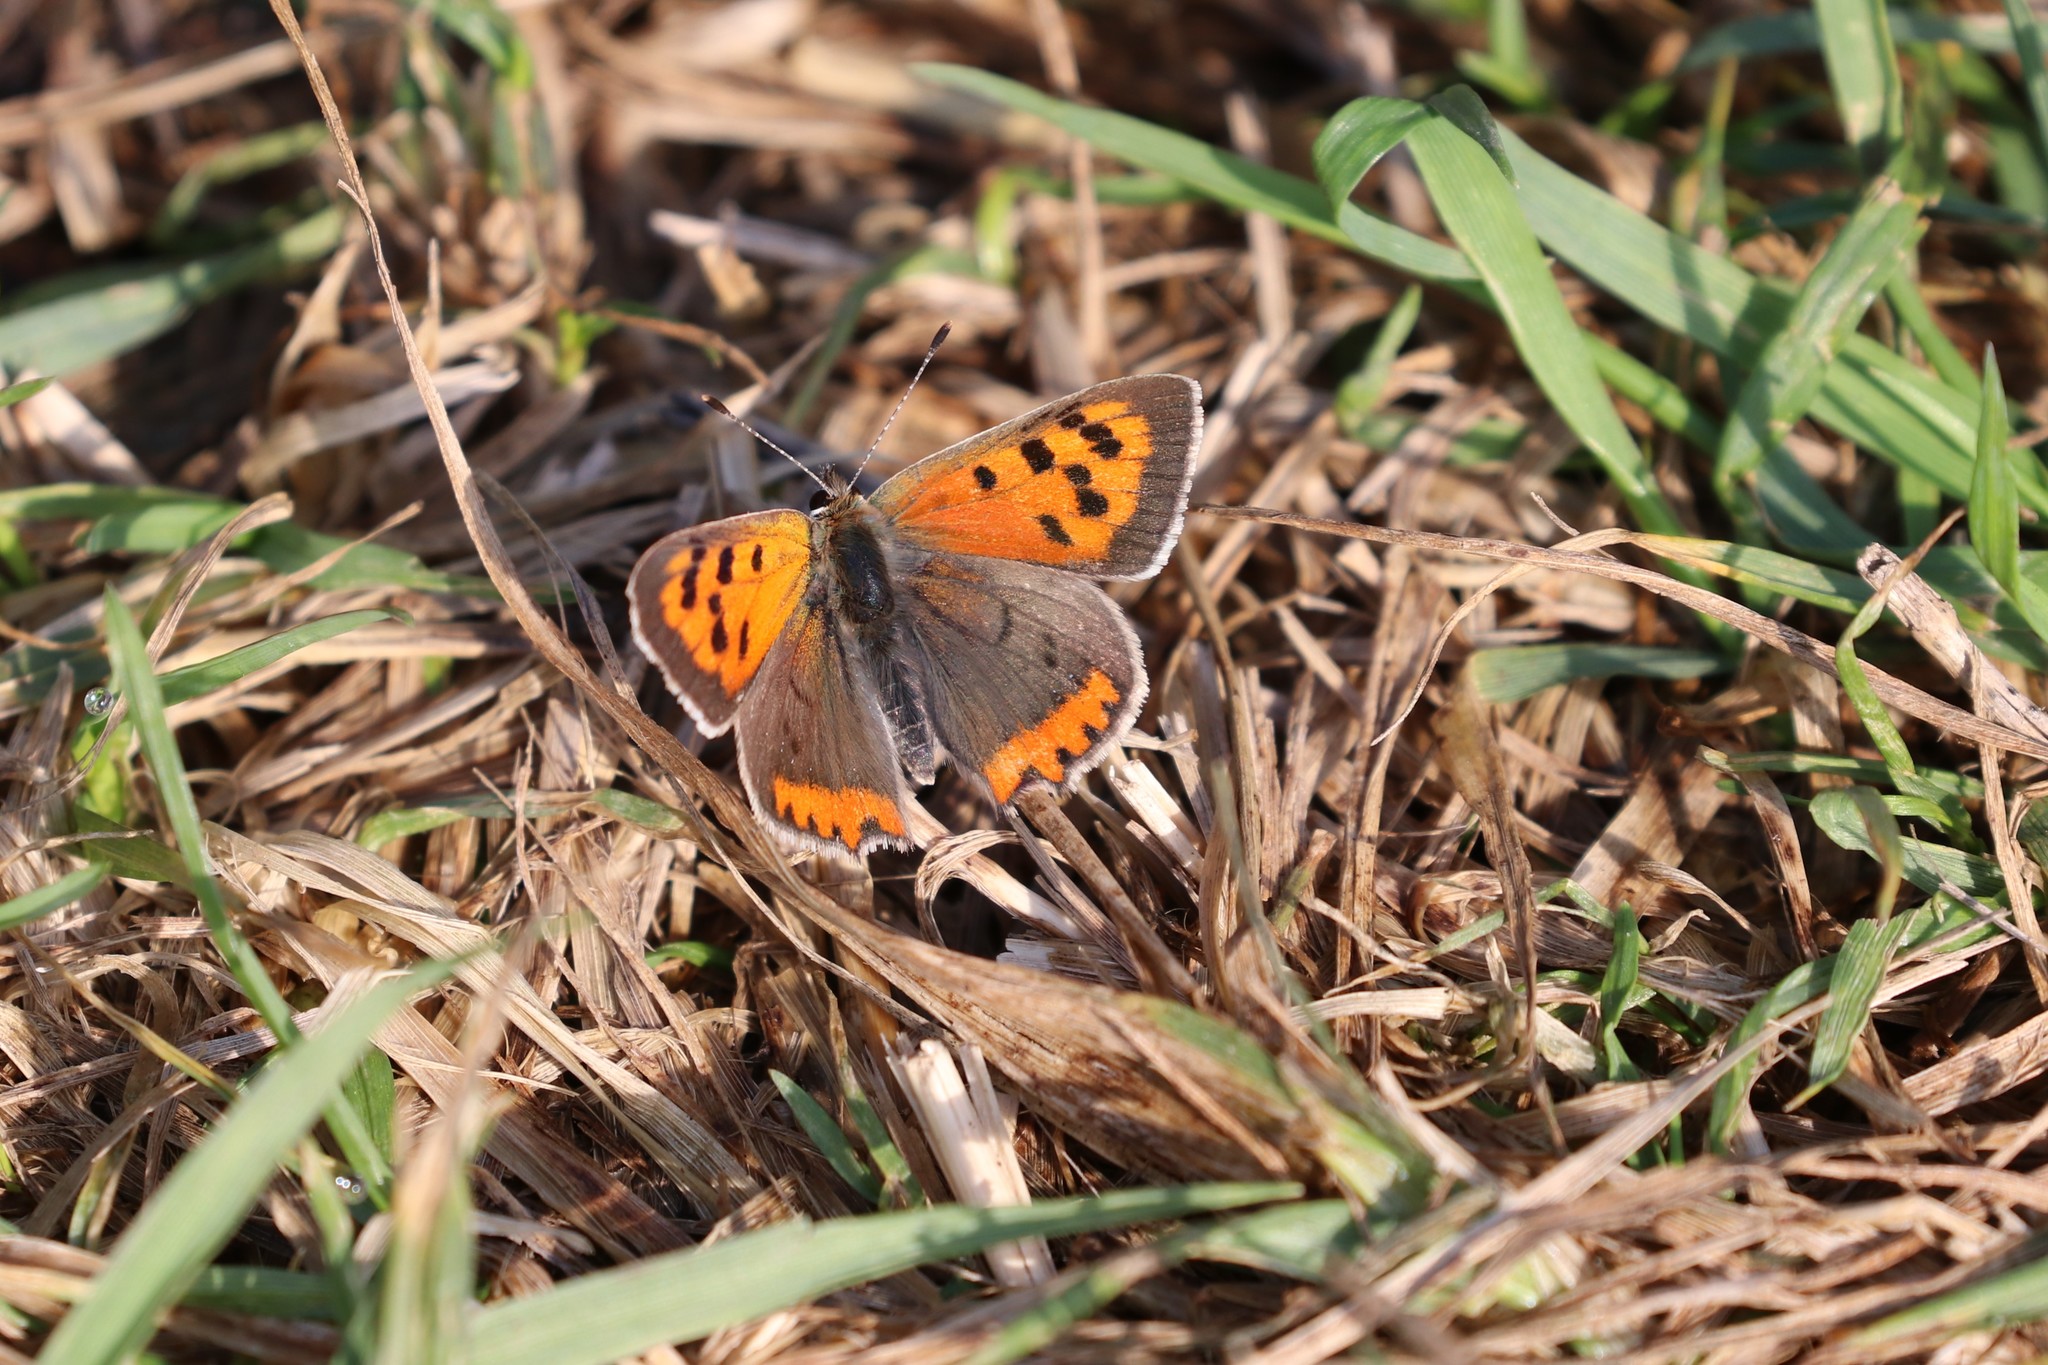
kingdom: Animalia
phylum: Arthropoda
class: Insecta
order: Lepidoptera
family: Lycaenidae
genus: Lycaena
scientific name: Lycaena phlaeas
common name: Small copper
